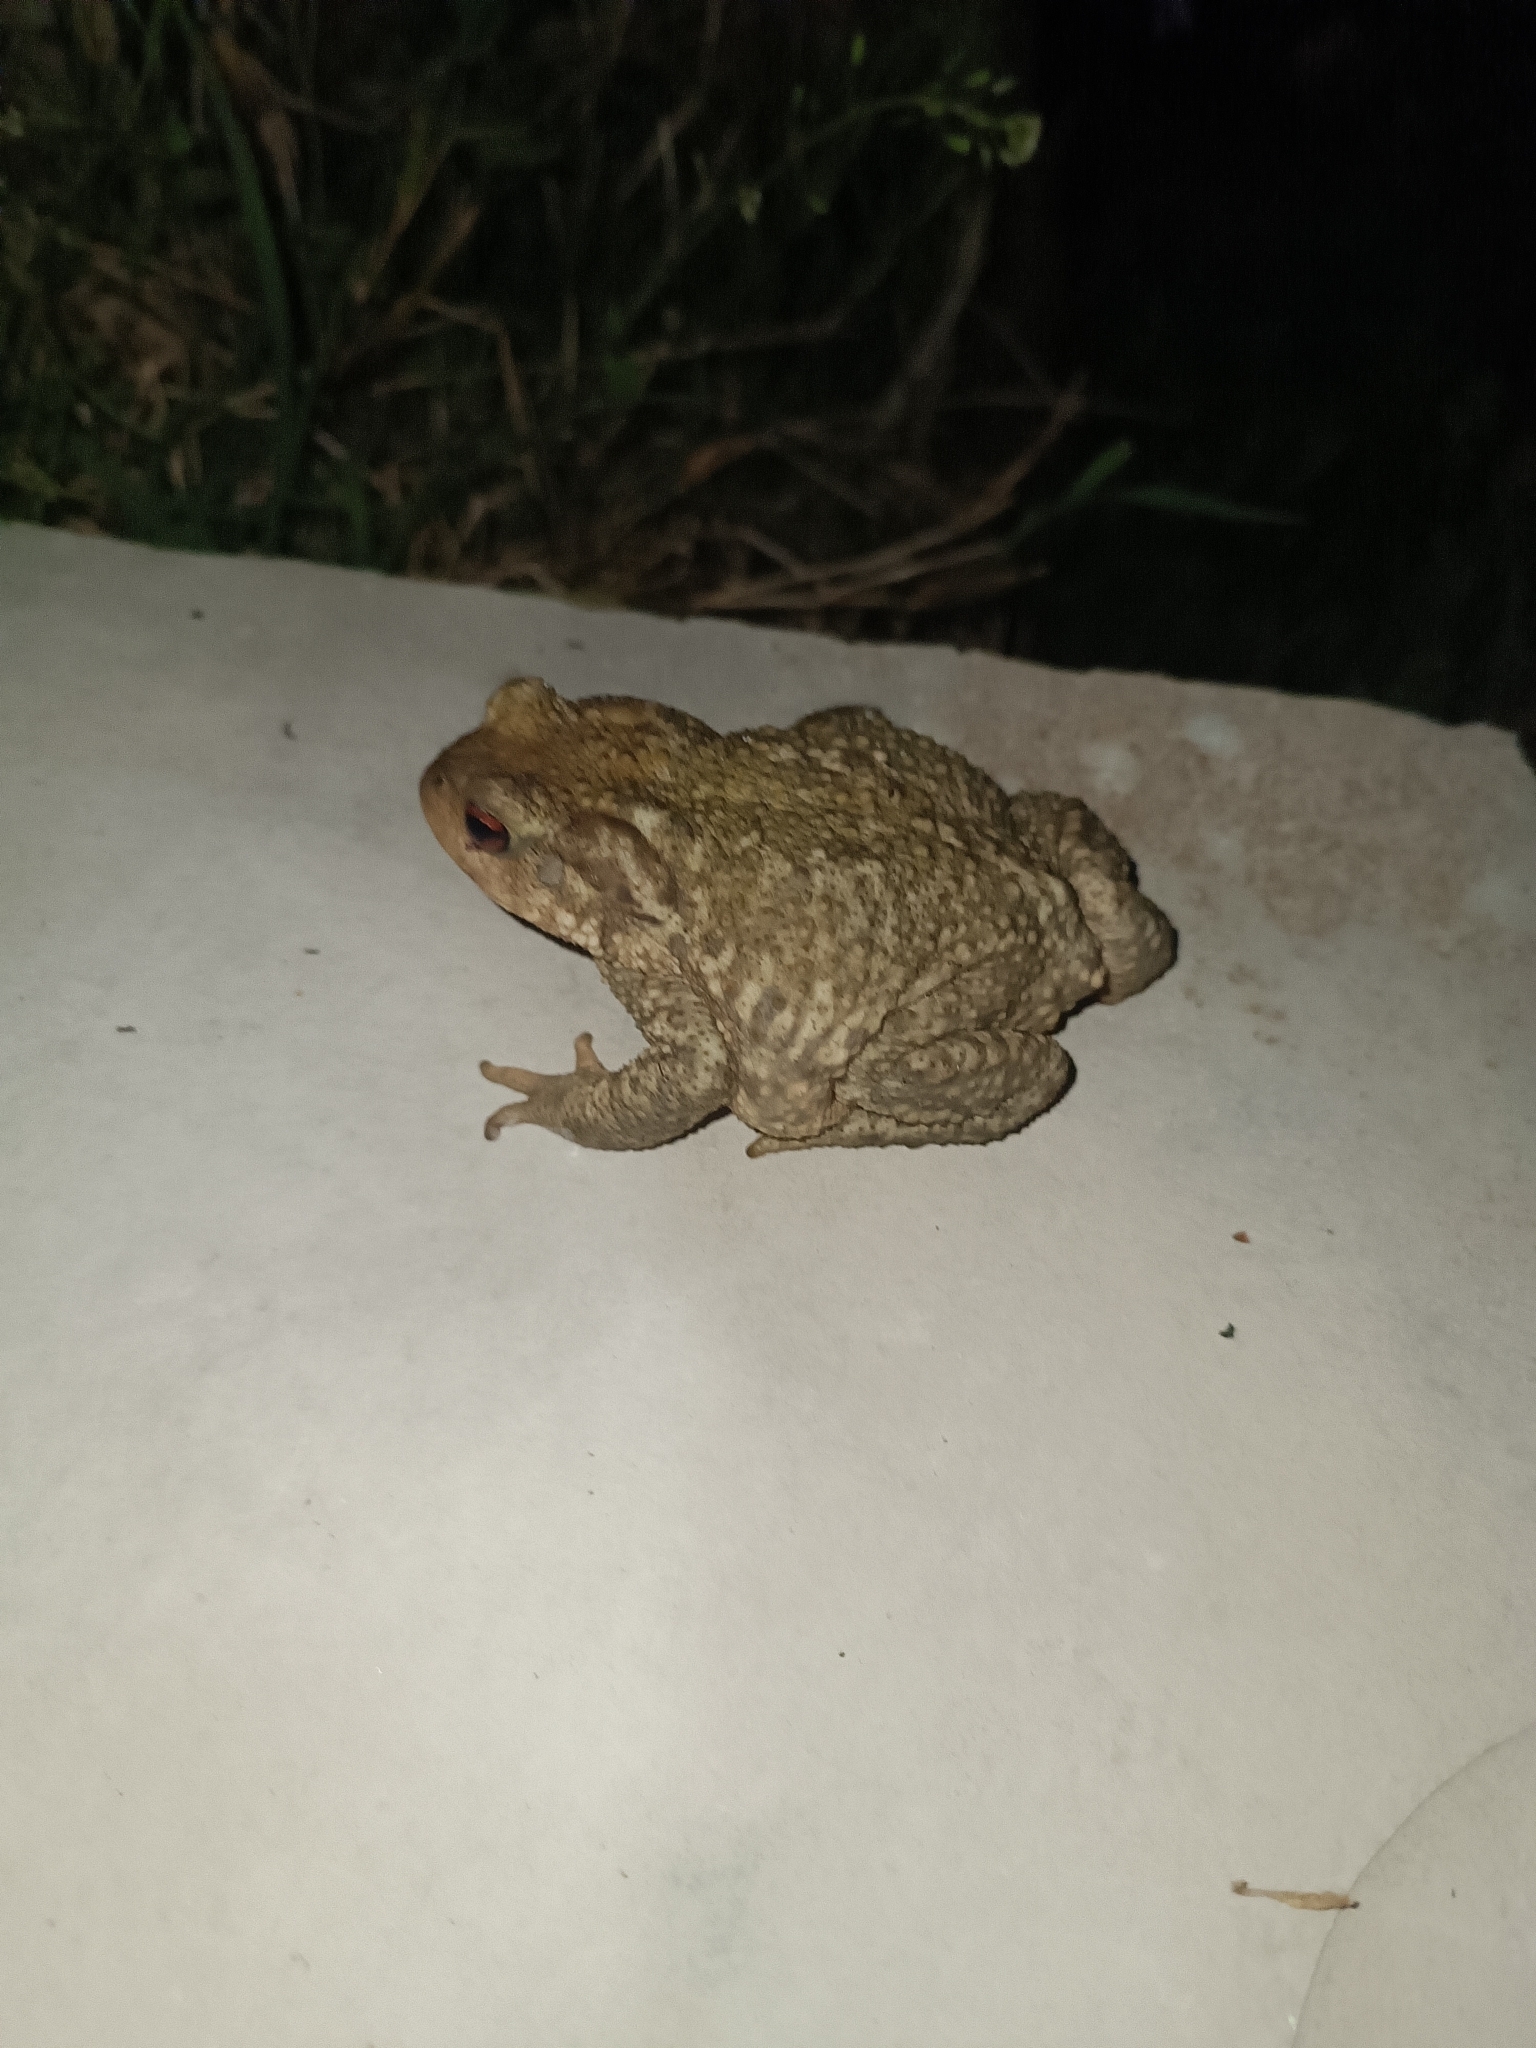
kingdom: Animalia
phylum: Chordata
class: Amphibia
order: Anura
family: Bufonidae
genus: Bufo
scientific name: Bufo spinosus
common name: Western common toad
